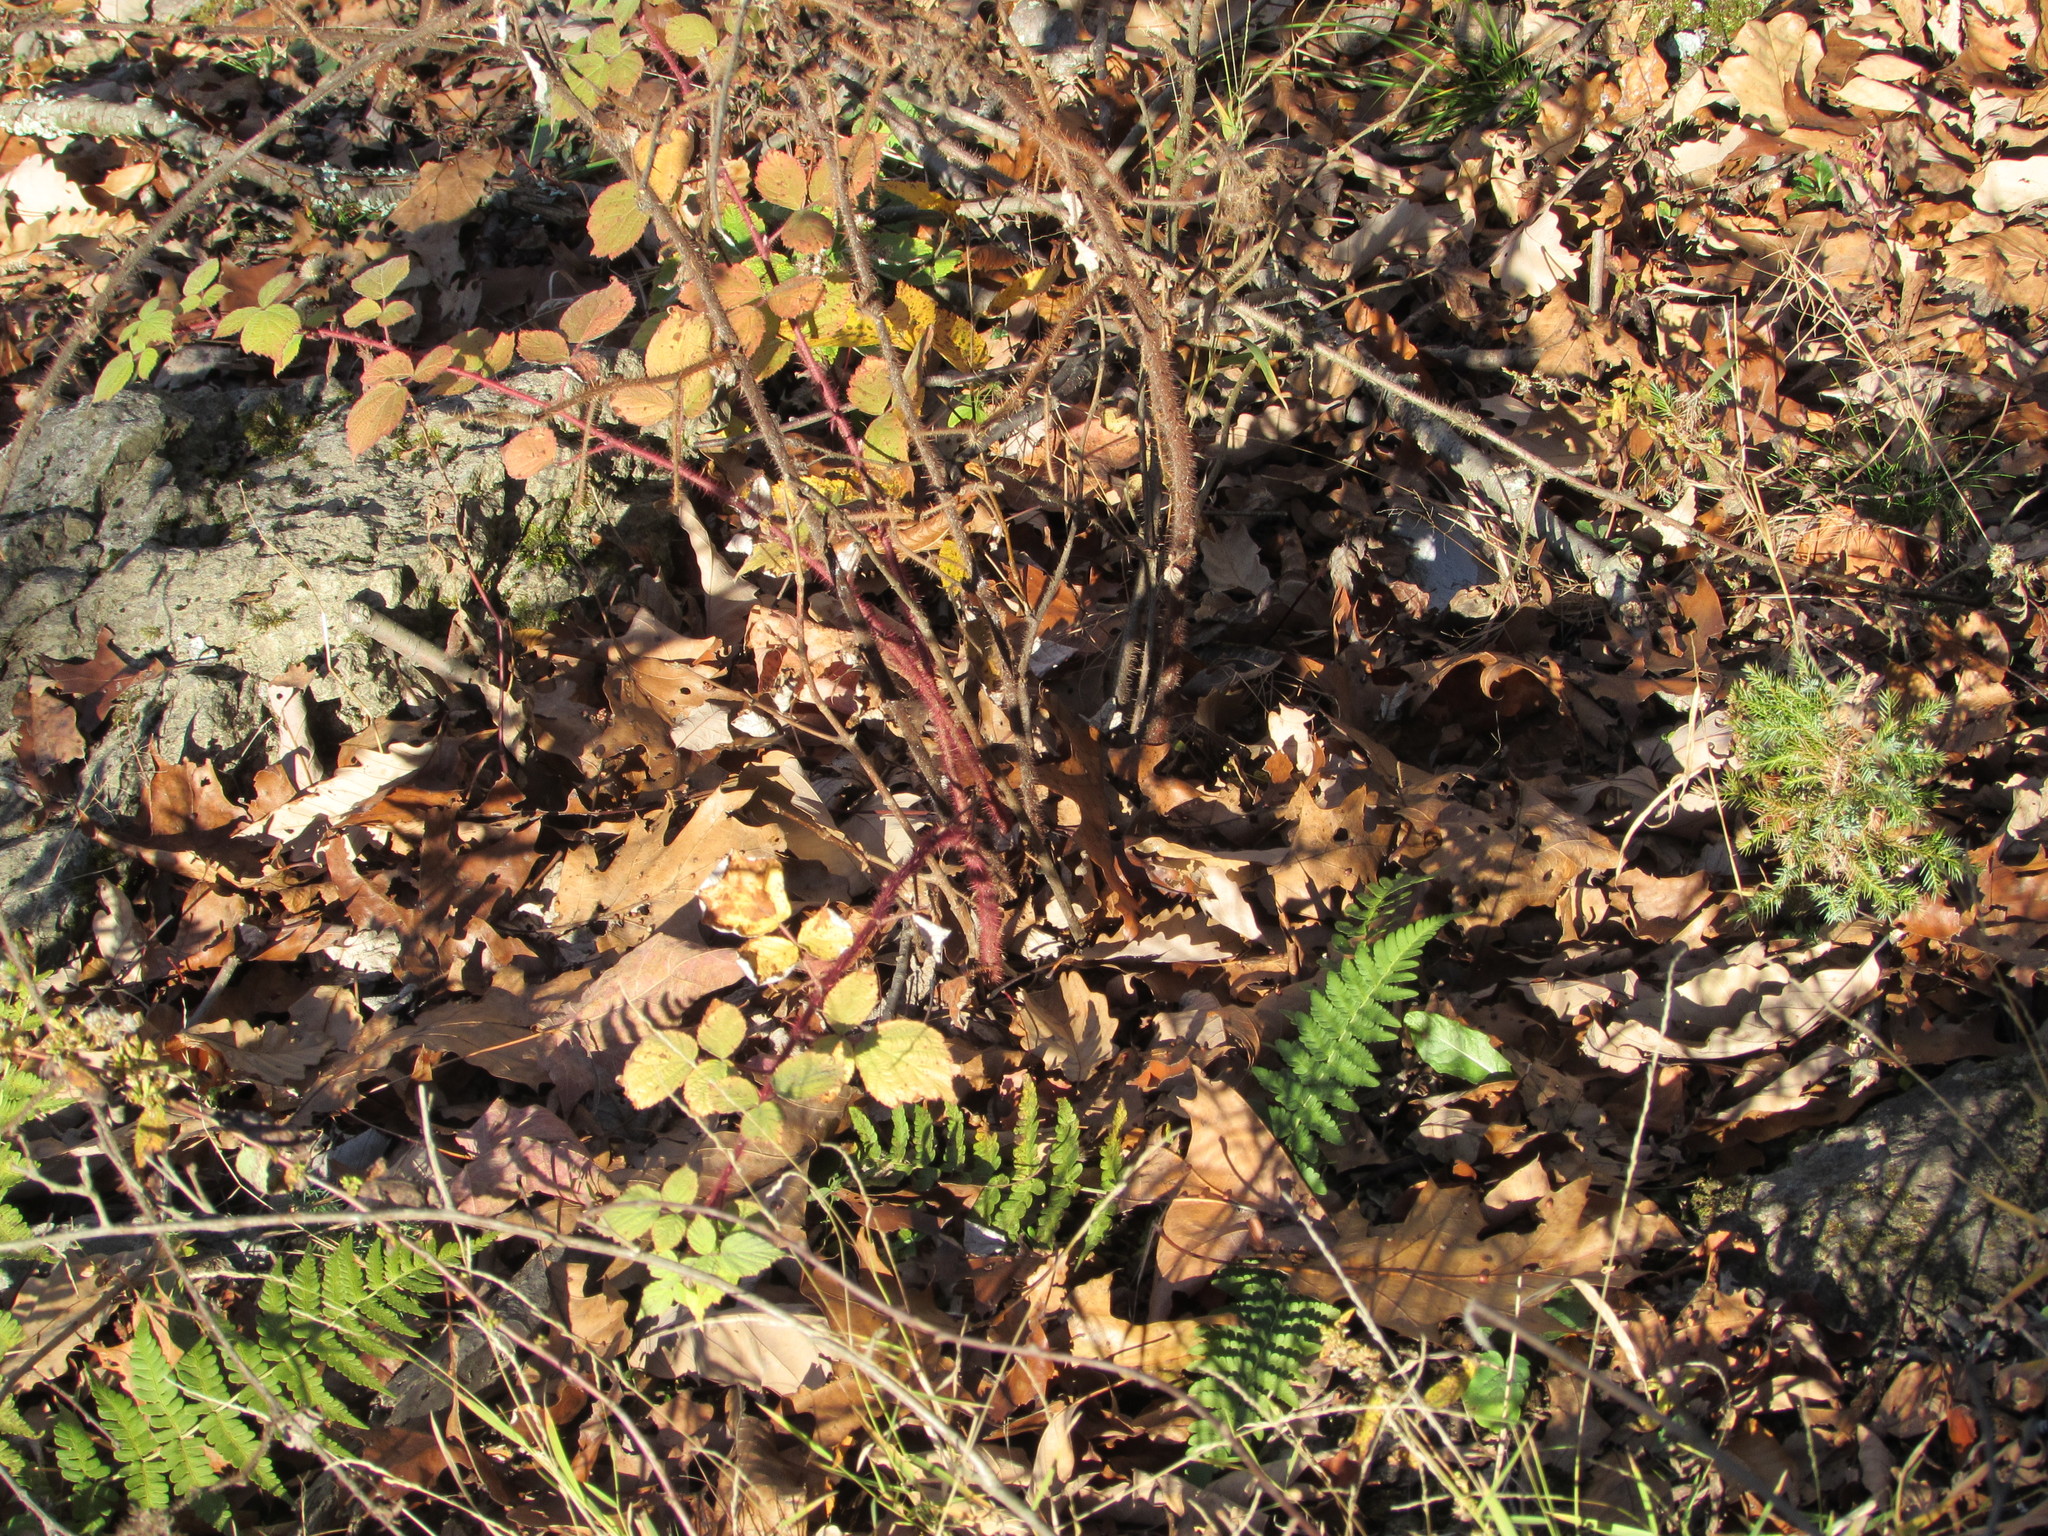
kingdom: Plantae
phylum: Tracheophyta
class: Magnoliopsida
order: Rosales
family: Rosaceae
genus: Rubus
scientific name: Rubus phoenicolasius
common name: Japanese wineberry
